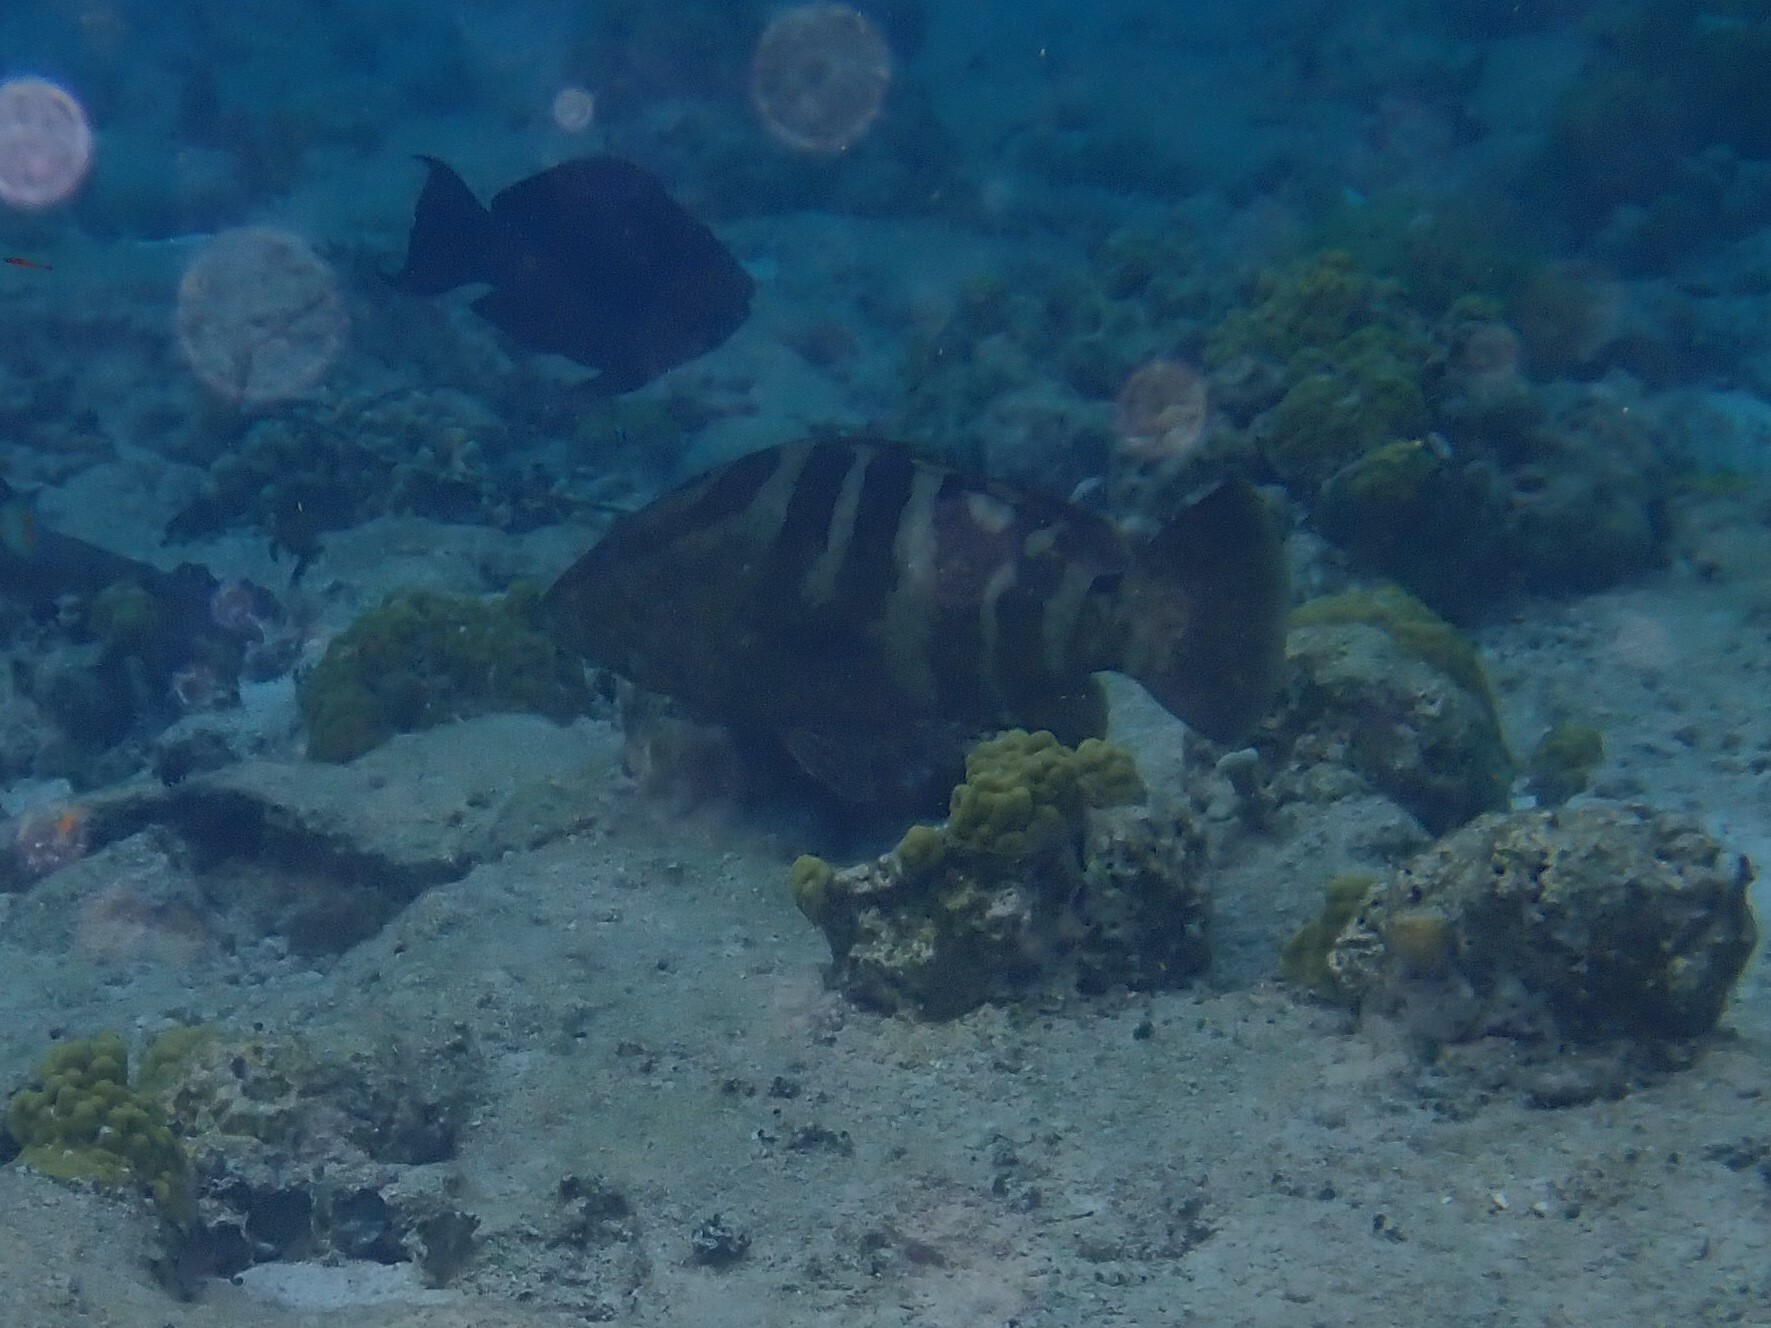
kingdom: Animalia
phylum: Chordata
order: Perciformes
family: Serranidae
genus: Epinephelus
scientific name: Epinephelus striatus
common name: Nassau grouper
